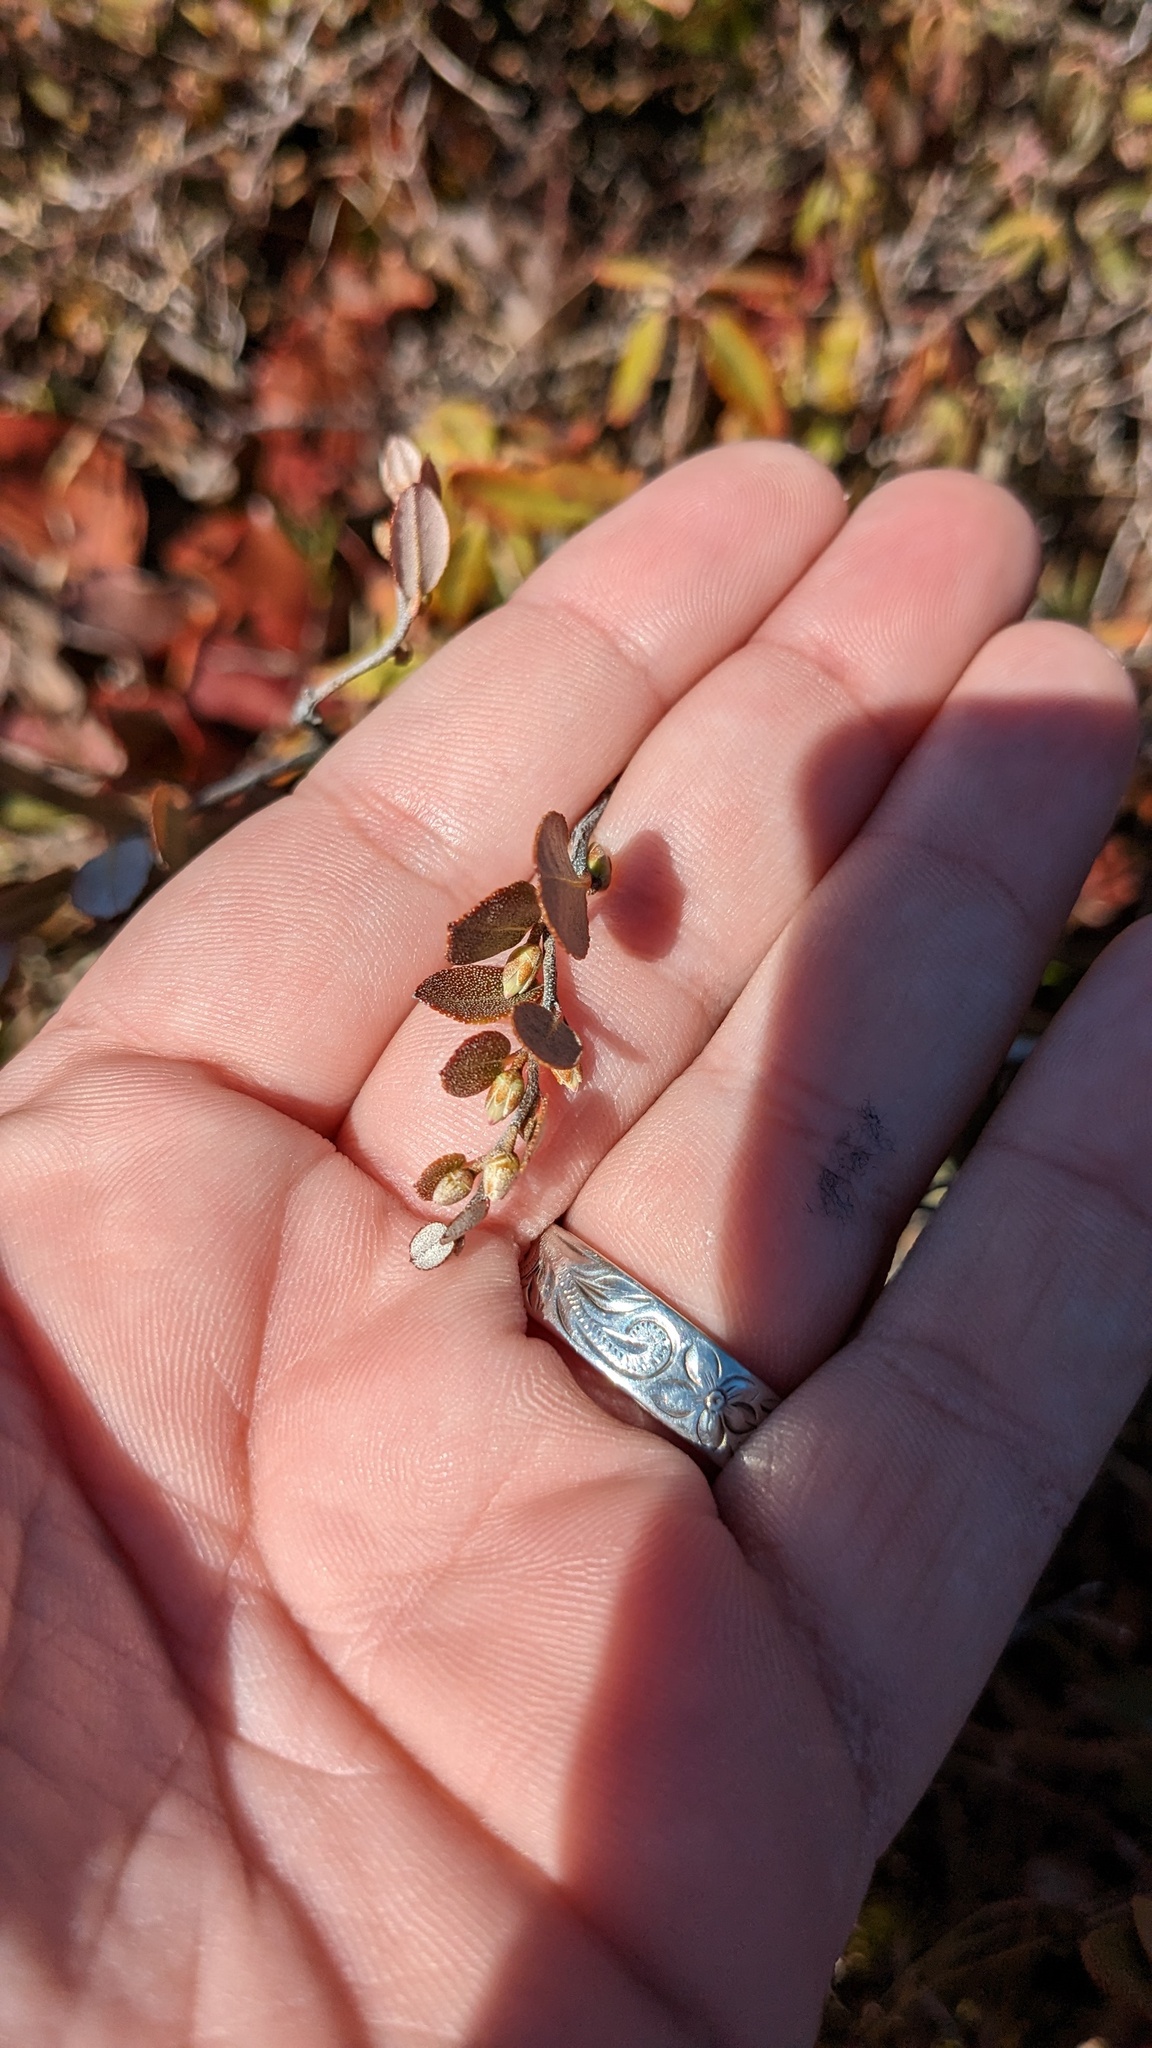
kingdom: Plantae
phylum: Tracheophyta
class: Magnoliopsida
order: Ericales
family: Ericaceae
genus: Chamaedaphne
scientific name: Chamaedaphne calyculata
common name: Leatherleaf
